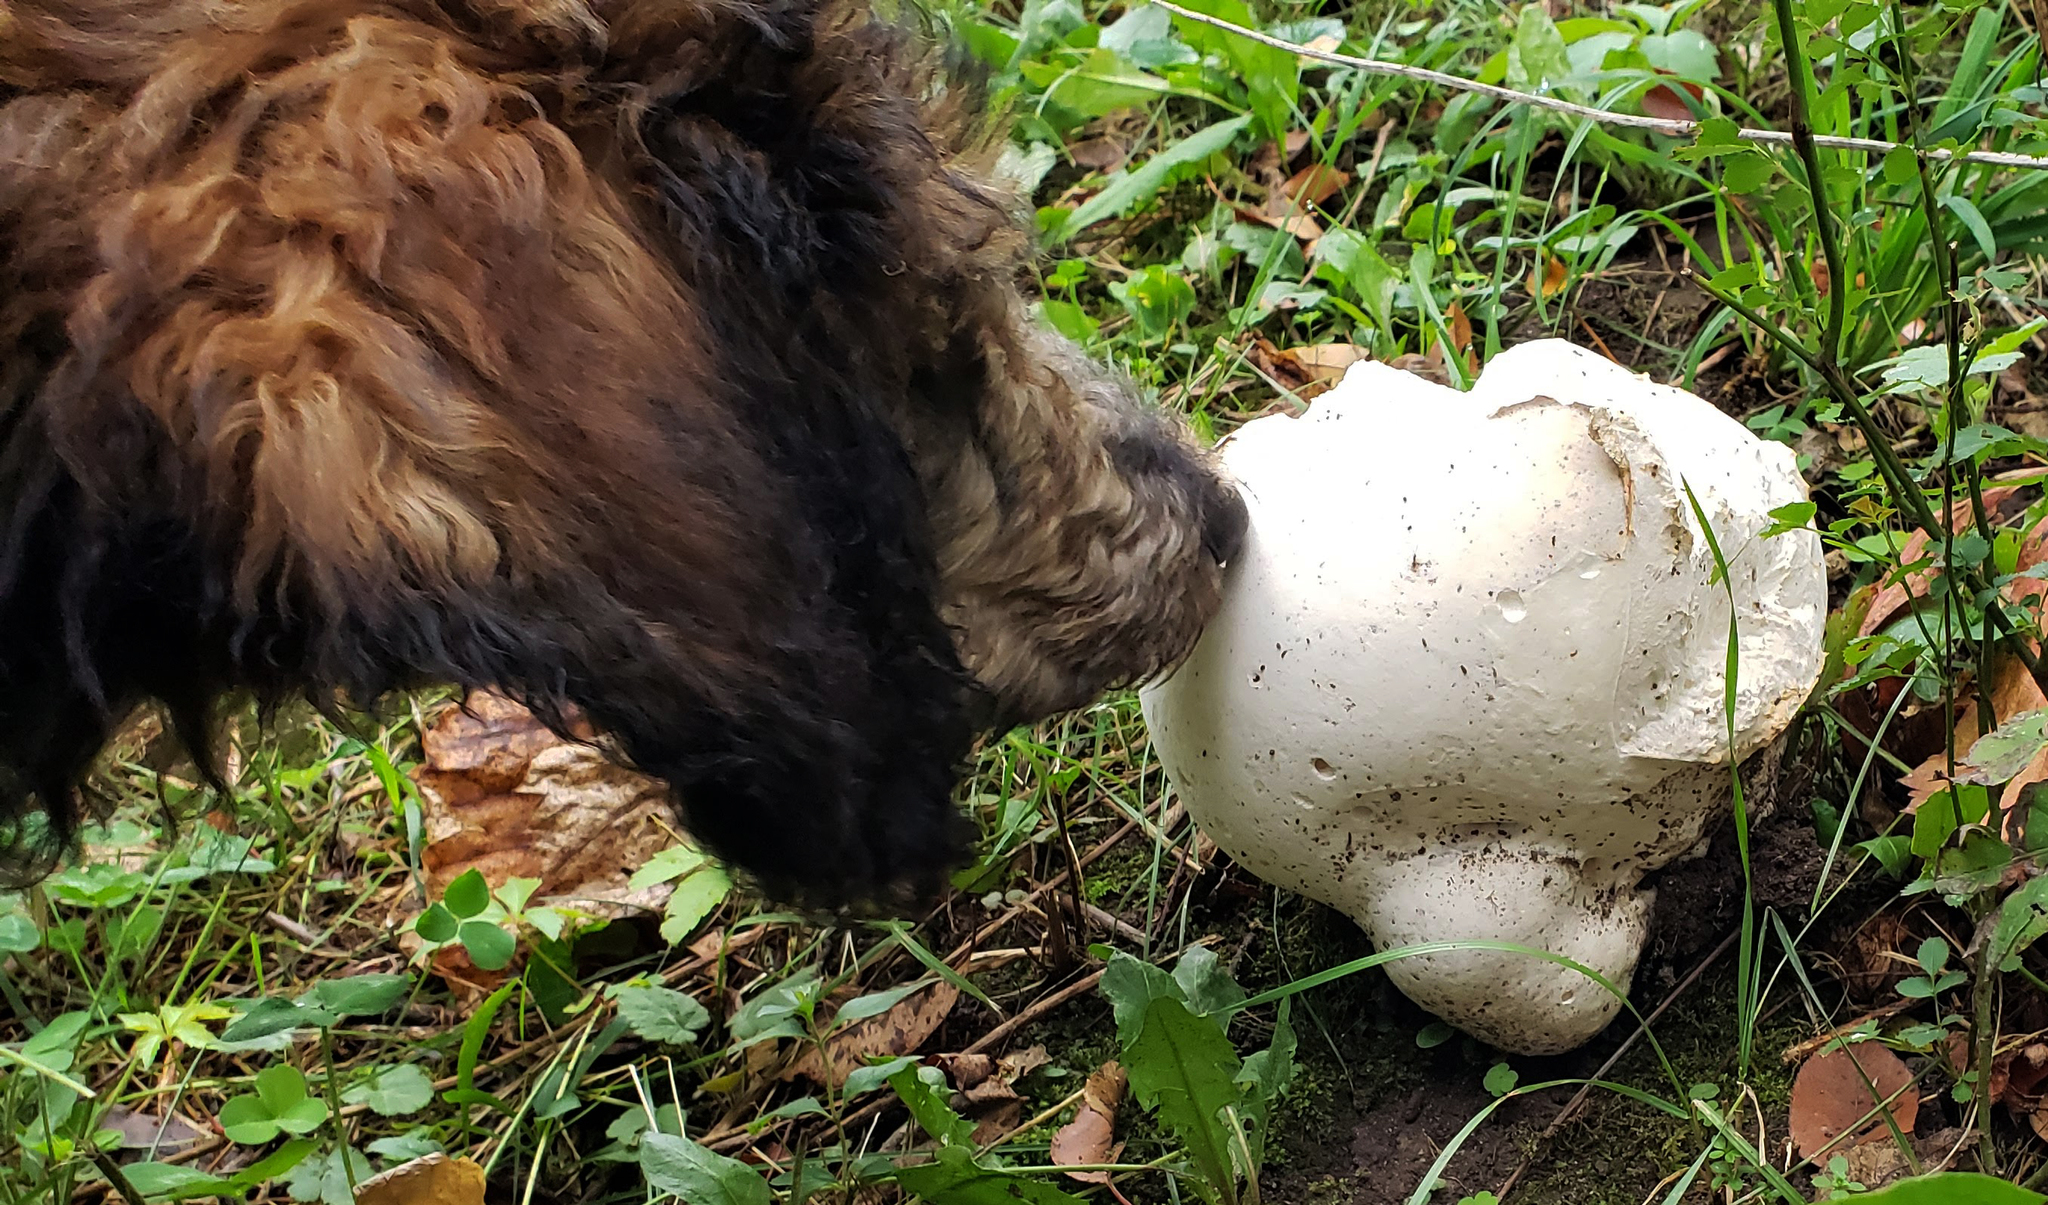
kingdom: Fungi
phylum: Basidiomycota
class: Agaricomycetes
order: Agaricales
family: Lycoperdaceae
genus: Calvatia
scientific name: Calvatia gigantea
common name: Giant puffball
